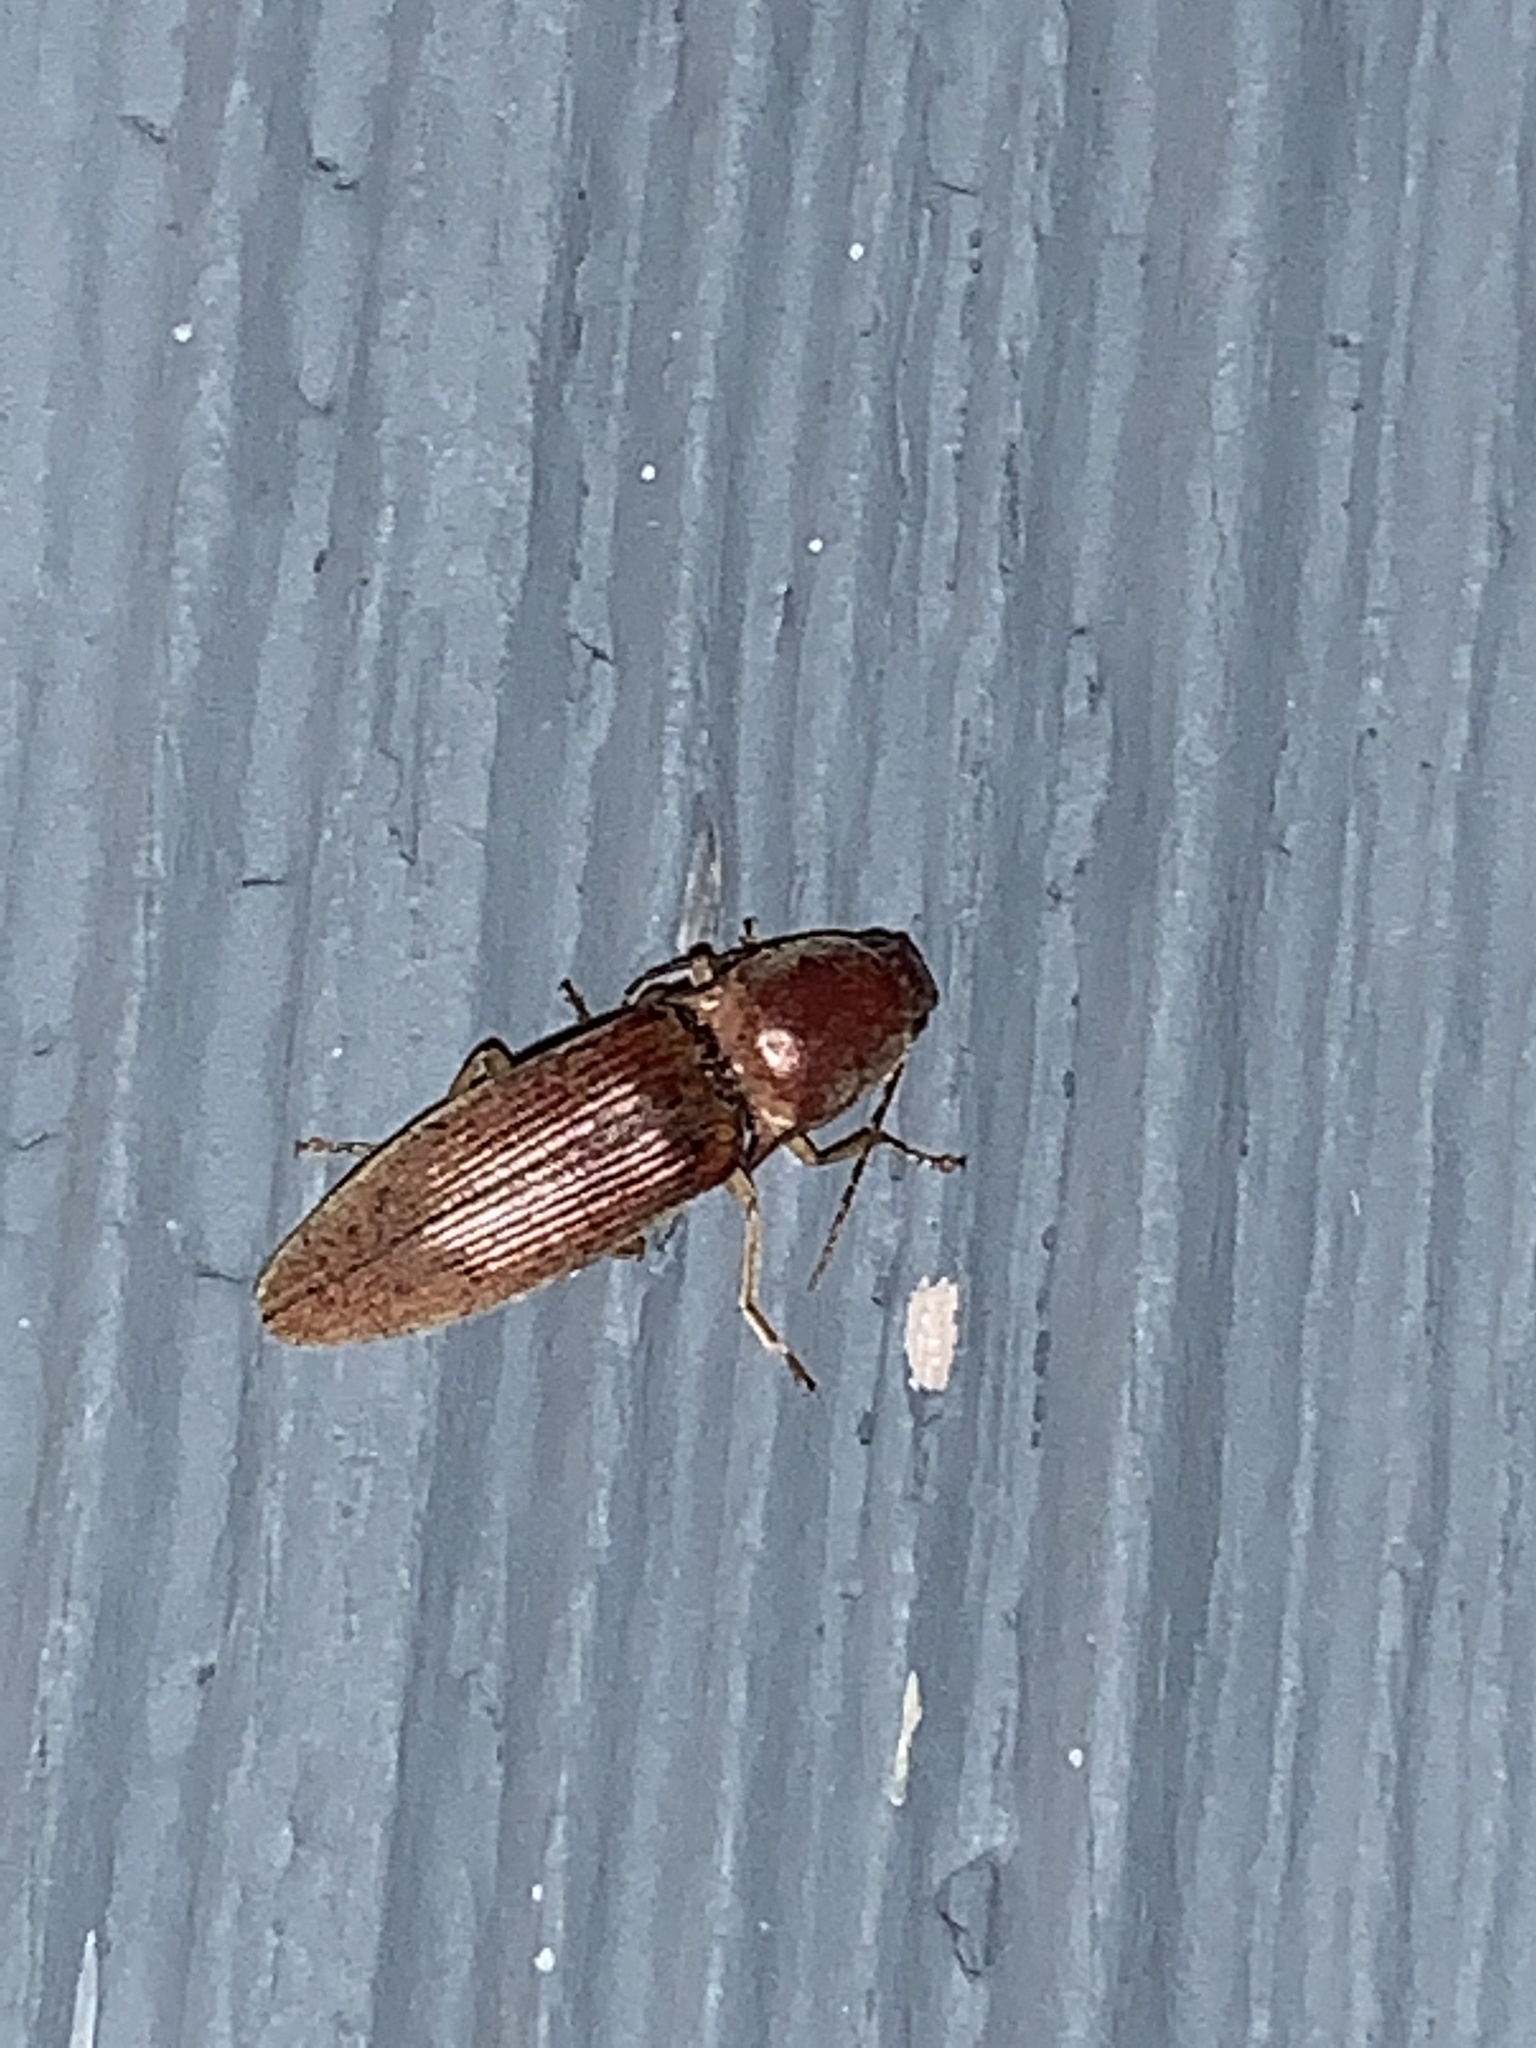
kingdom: Animalia
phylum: Arthropoda
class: Insecta
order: Coleoptera
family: Elateridae
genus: Monocrepidius
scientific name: Monocrepidius lividus
